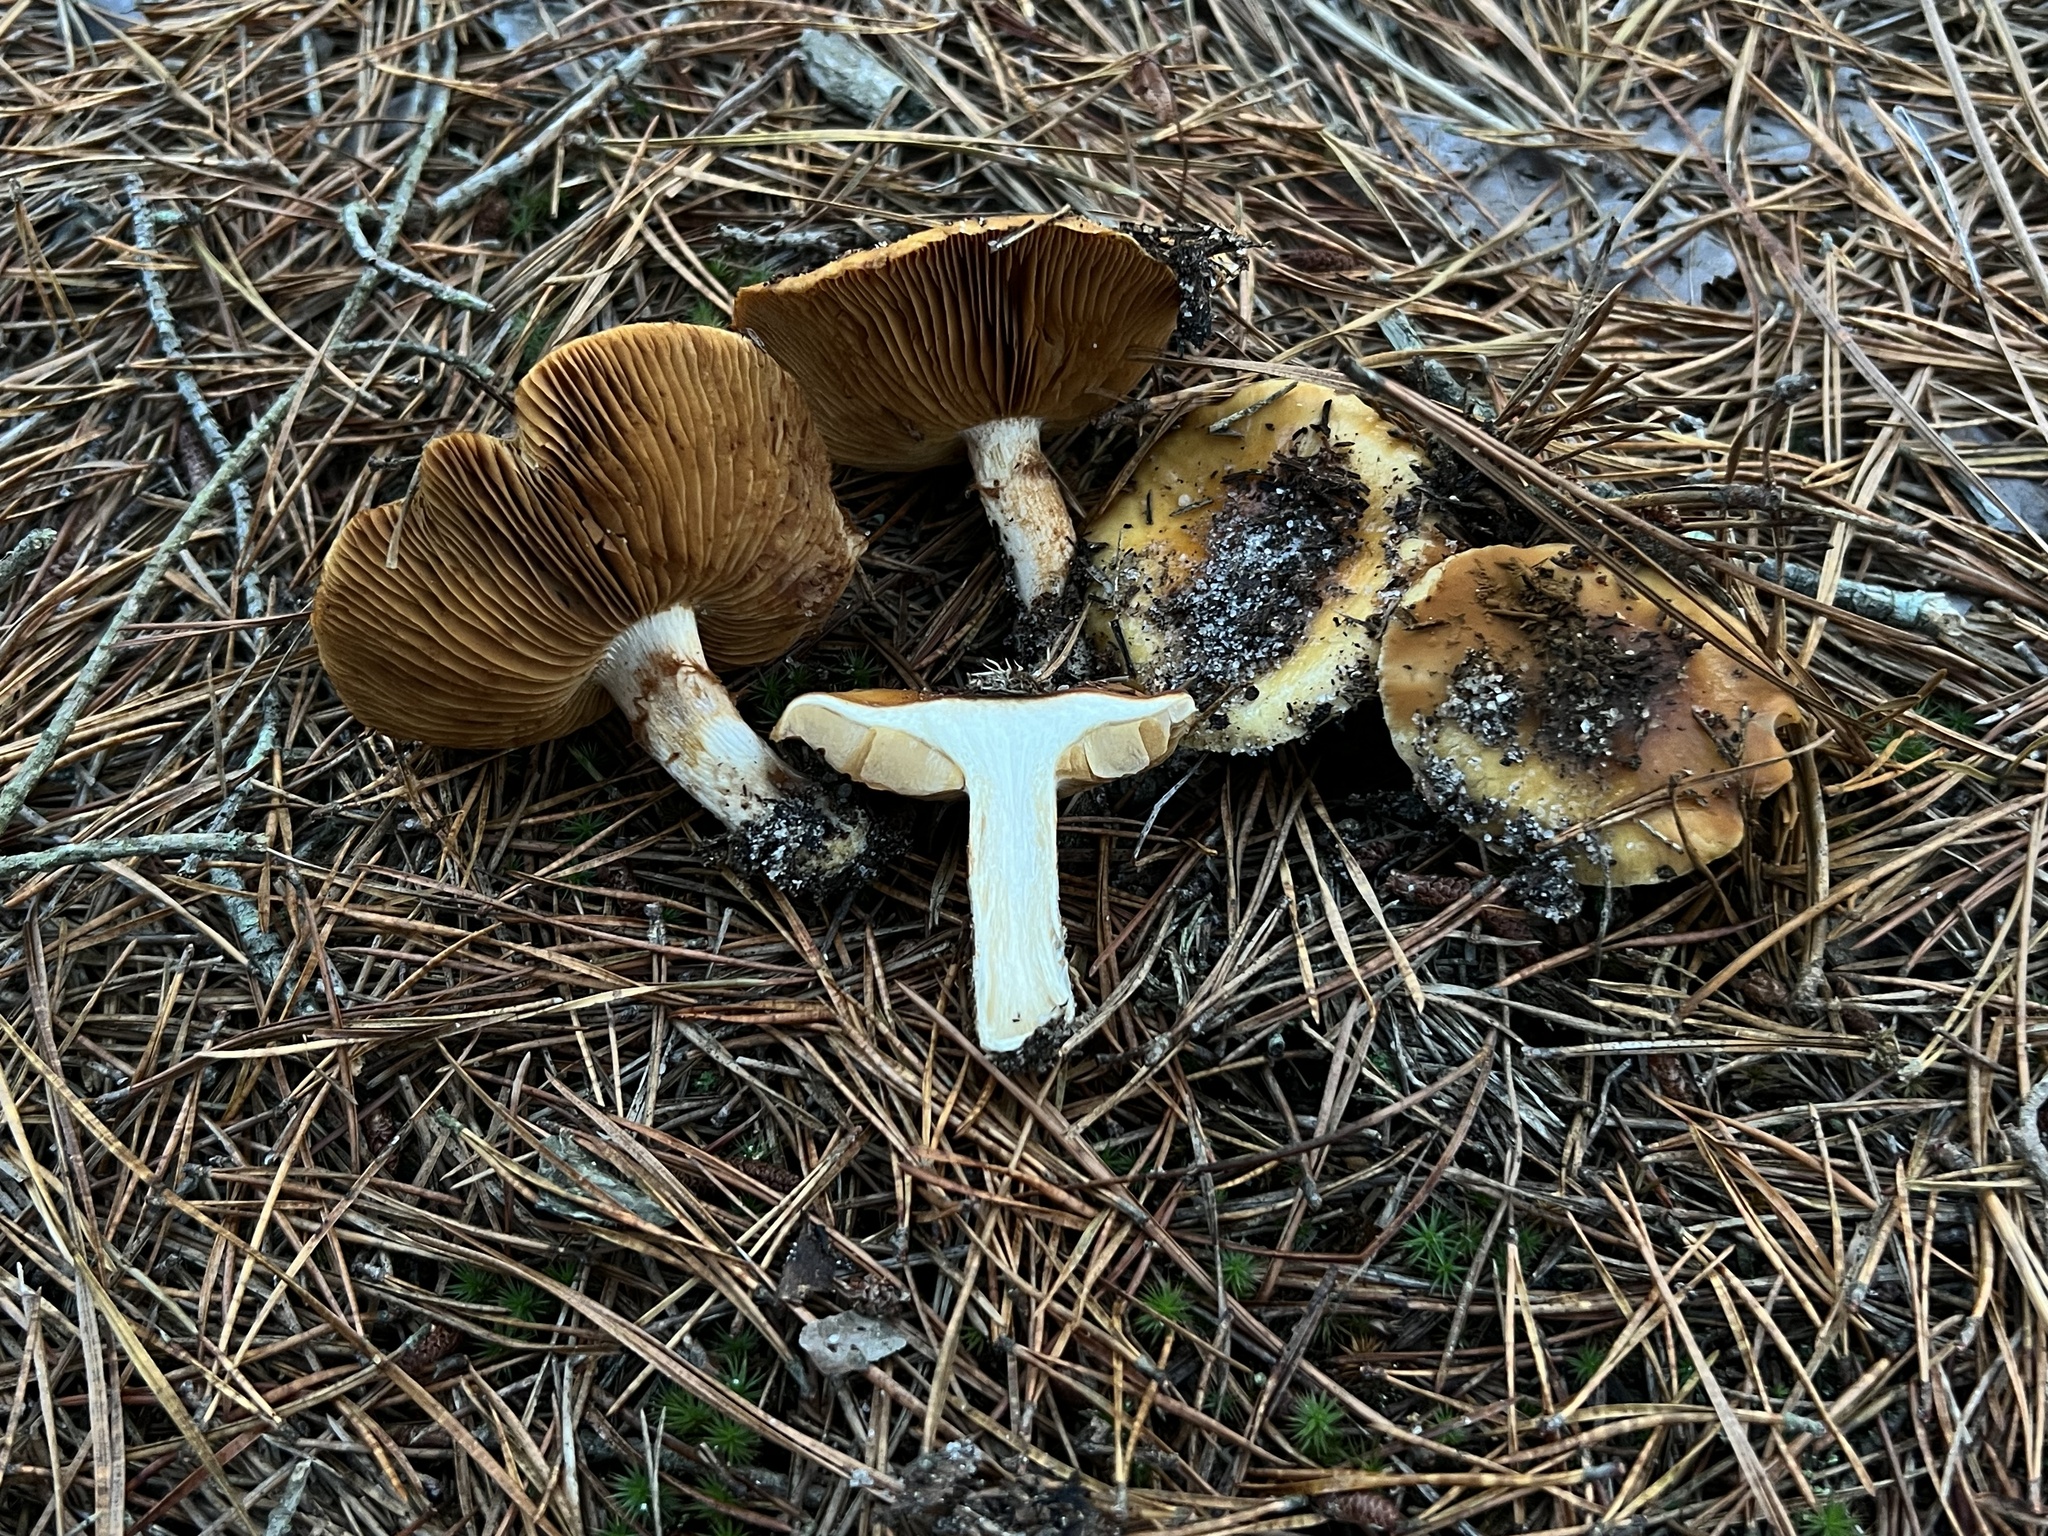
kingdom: Fungi
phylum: Basidiomycota
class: Agaricomycetes
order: Agaricales
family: Cortinariaceae
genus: Cortinarius
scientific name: Cortinarius mucosus
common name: Orange webcap
